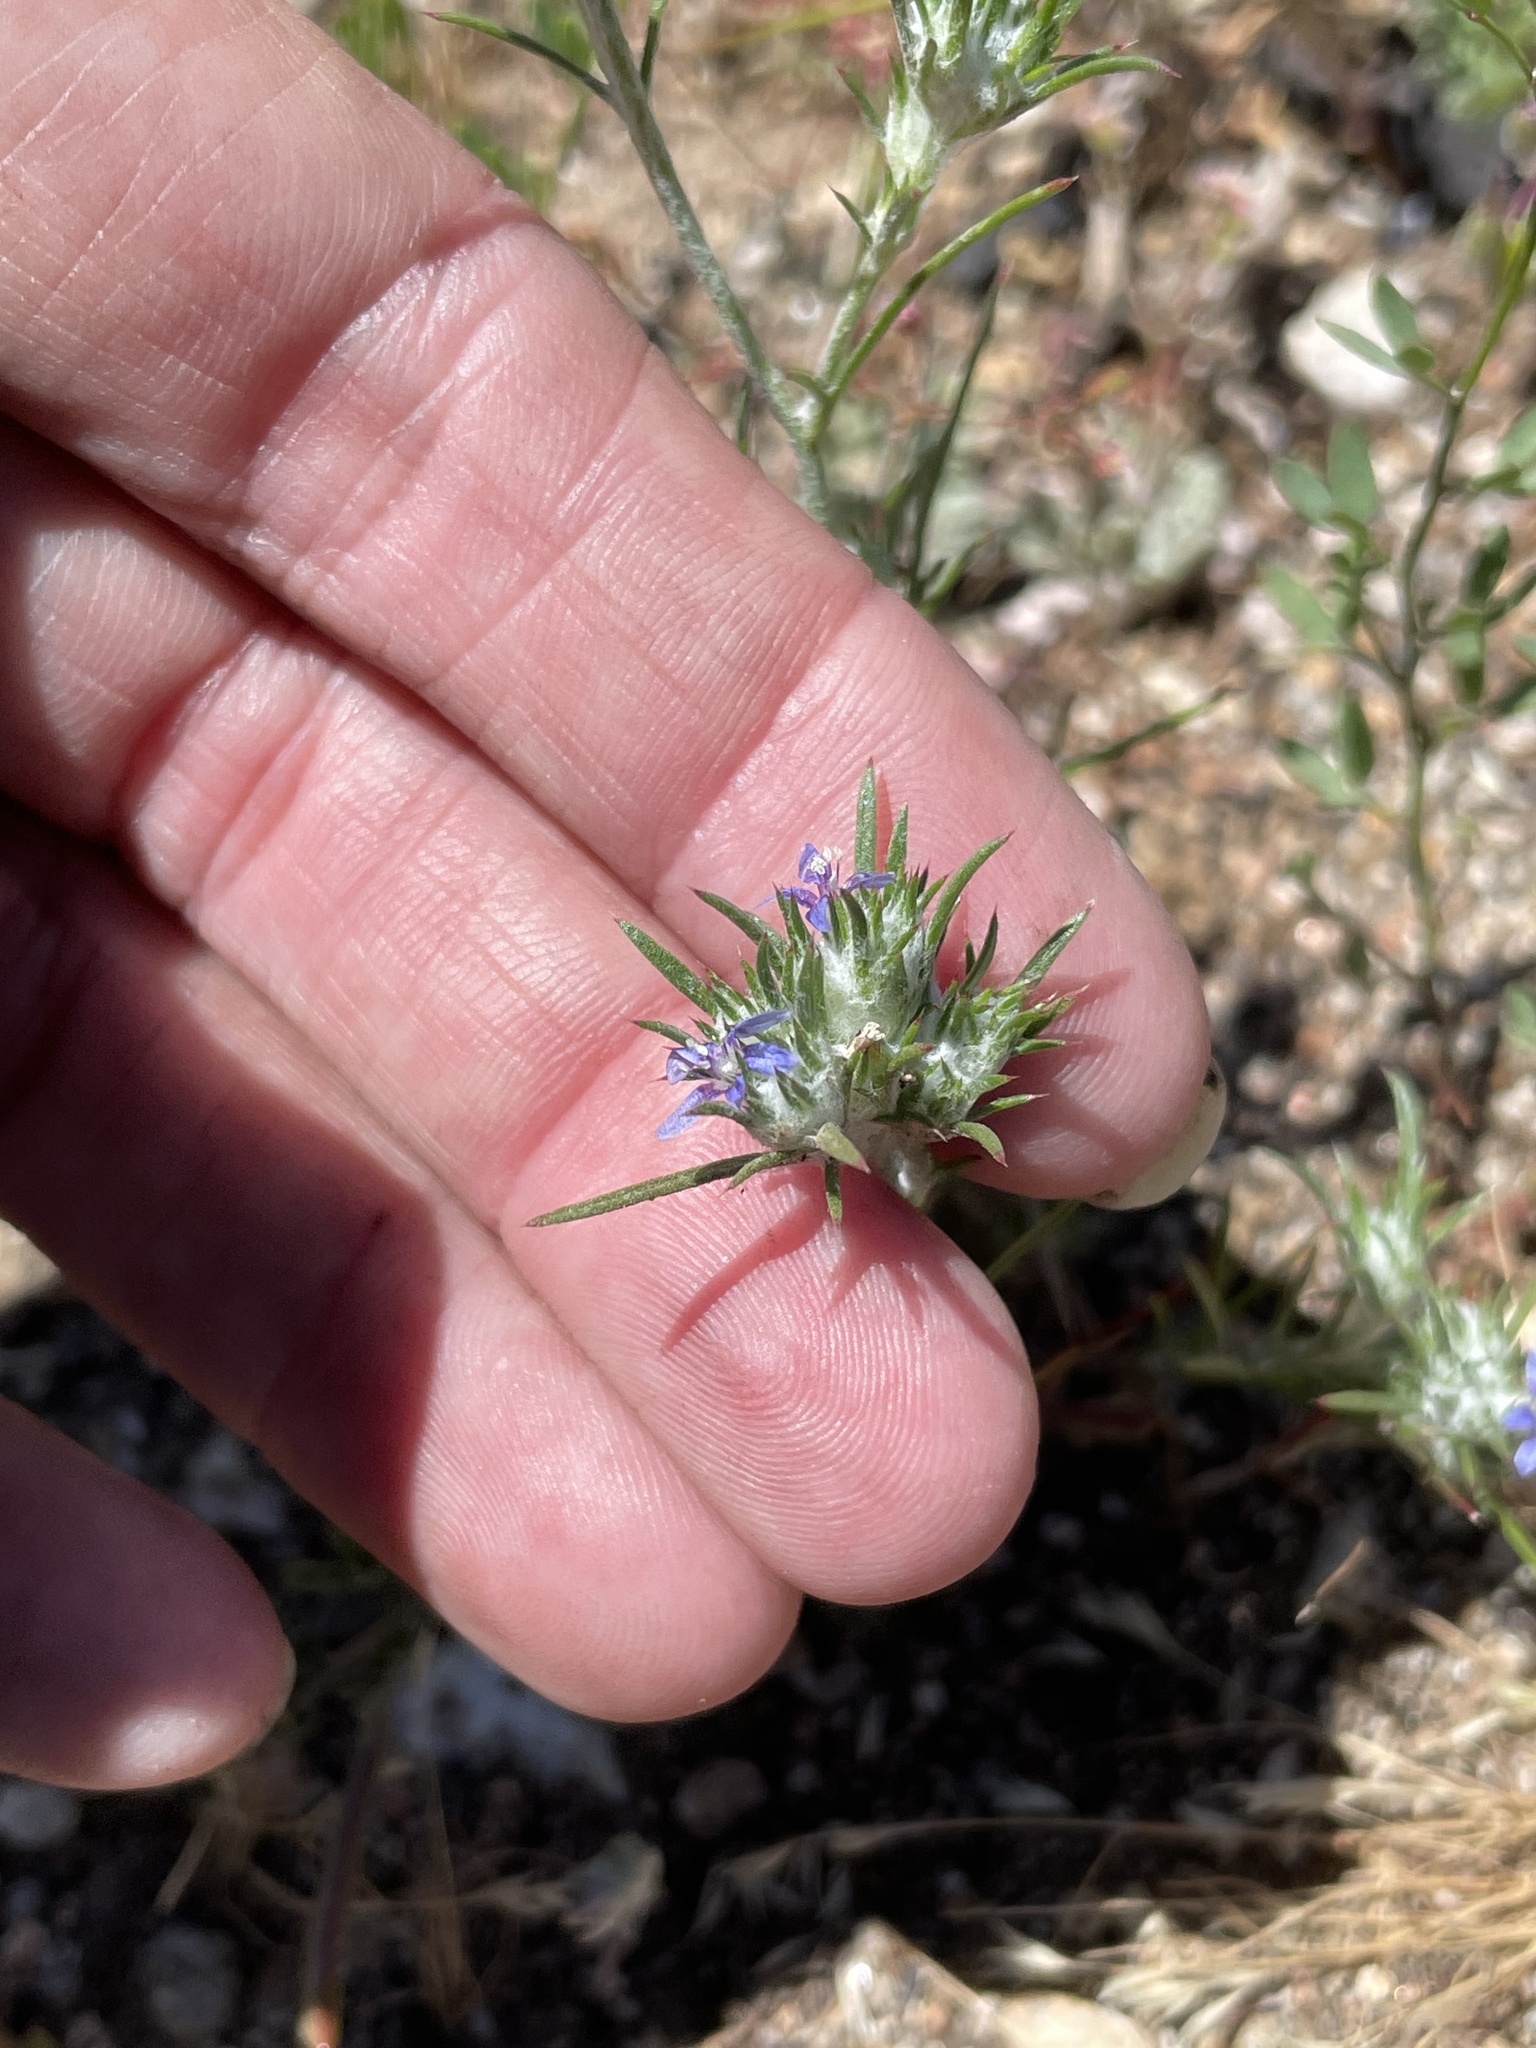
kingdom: Plantae
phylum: Tracheophyta
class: Magnoliopsida
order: Ericales
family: Polemoniaceae
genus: Eriastrum
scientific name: Eriastrum filifolium
